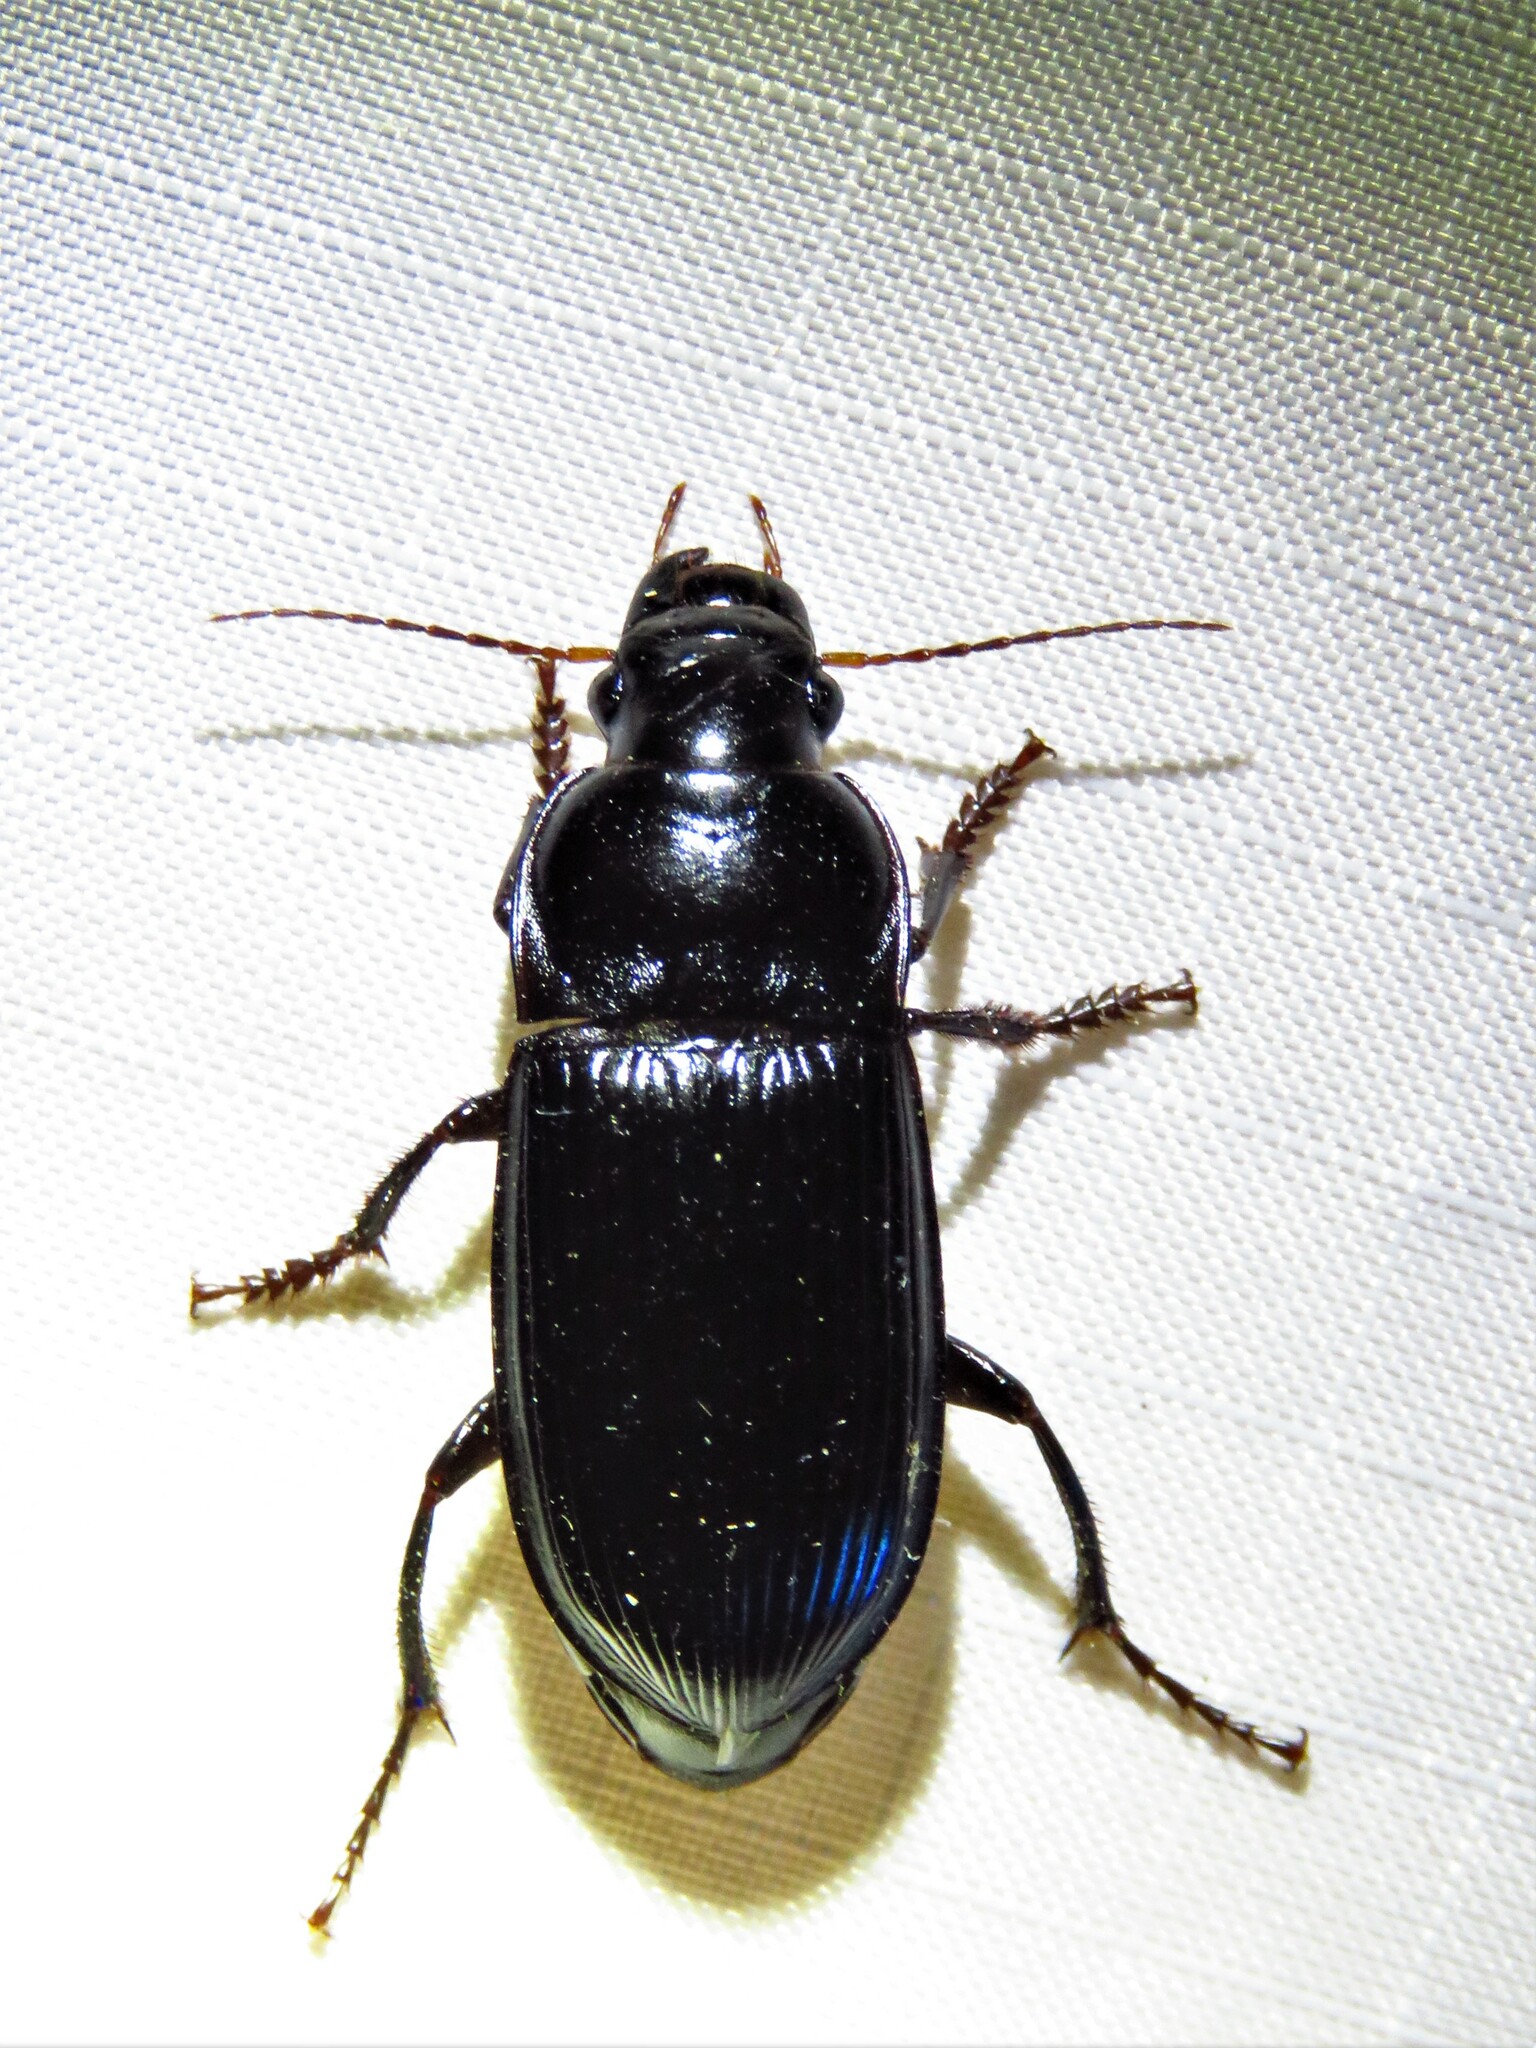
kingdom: Animalia
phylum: Arthropoda
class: Insecta
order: Coleoptera
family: Carabidae
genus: Harpalus
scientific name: Harpalus caliginosus
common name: Murky ground beetle
